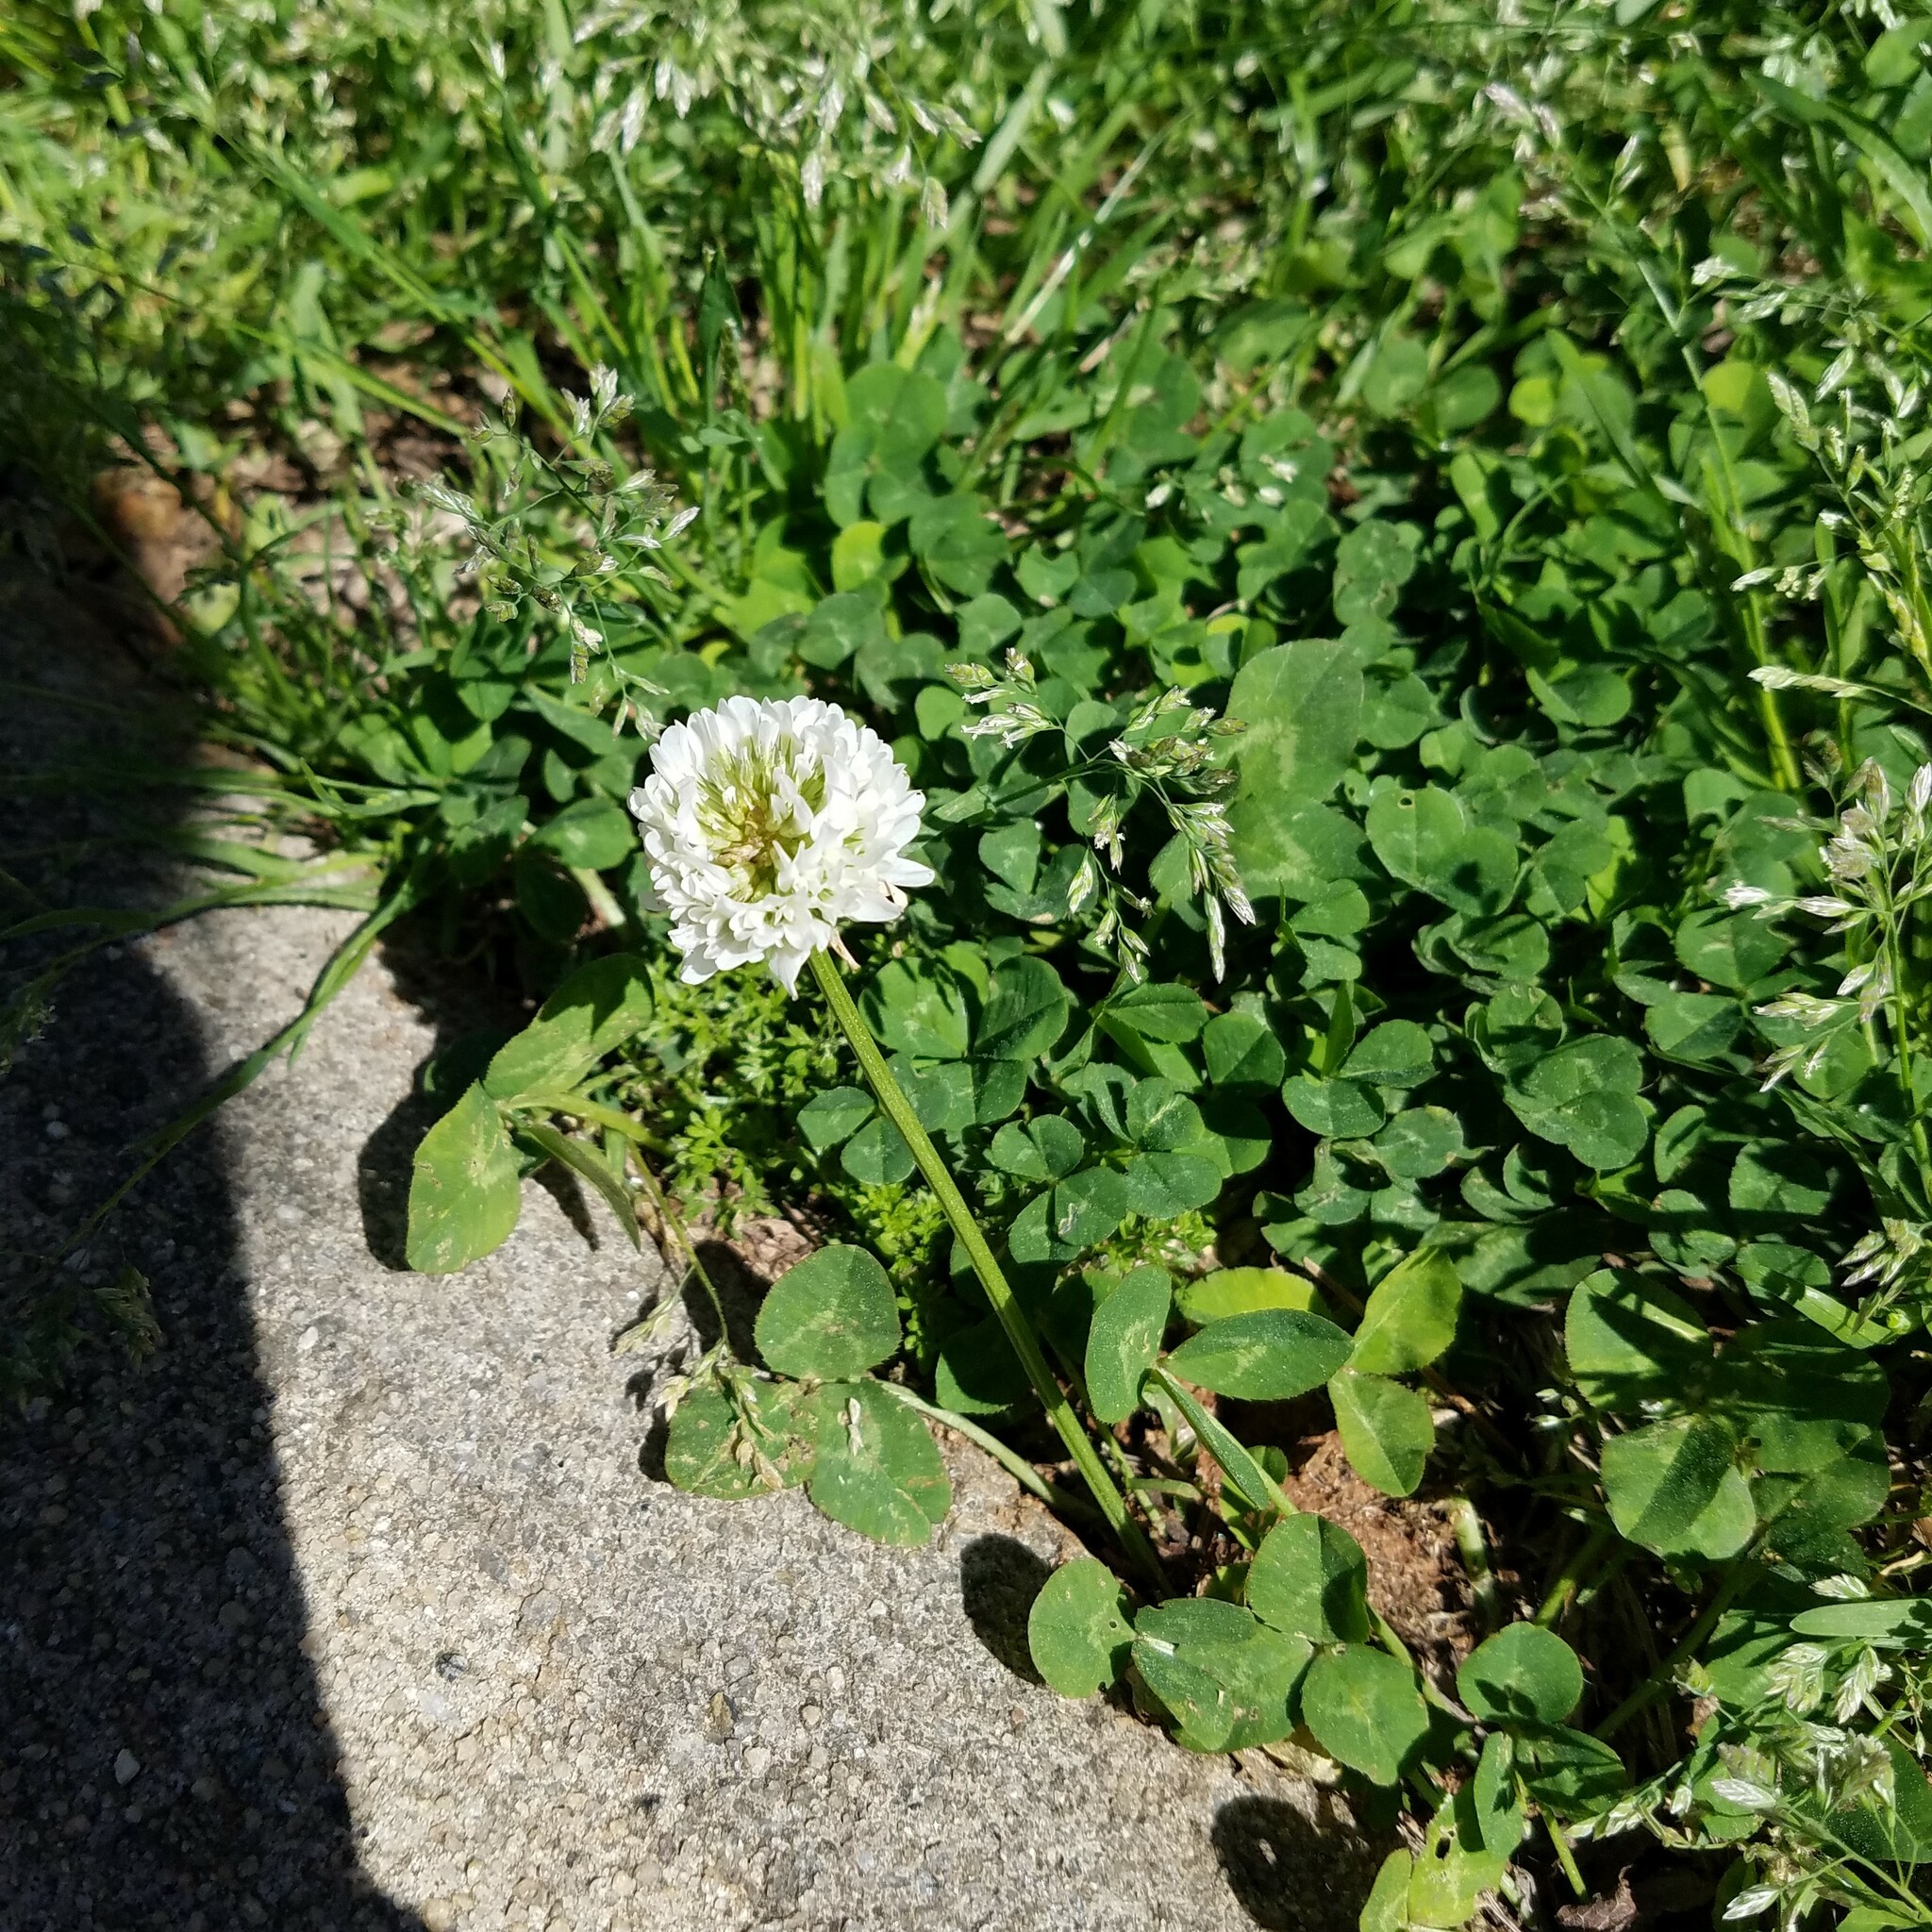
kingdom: Plantae
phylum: Tracheophyta
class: Magnoliopsida
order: Fabales
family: Fabaceae
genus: Trifolium
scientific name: Trifolium repens
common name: White clover
